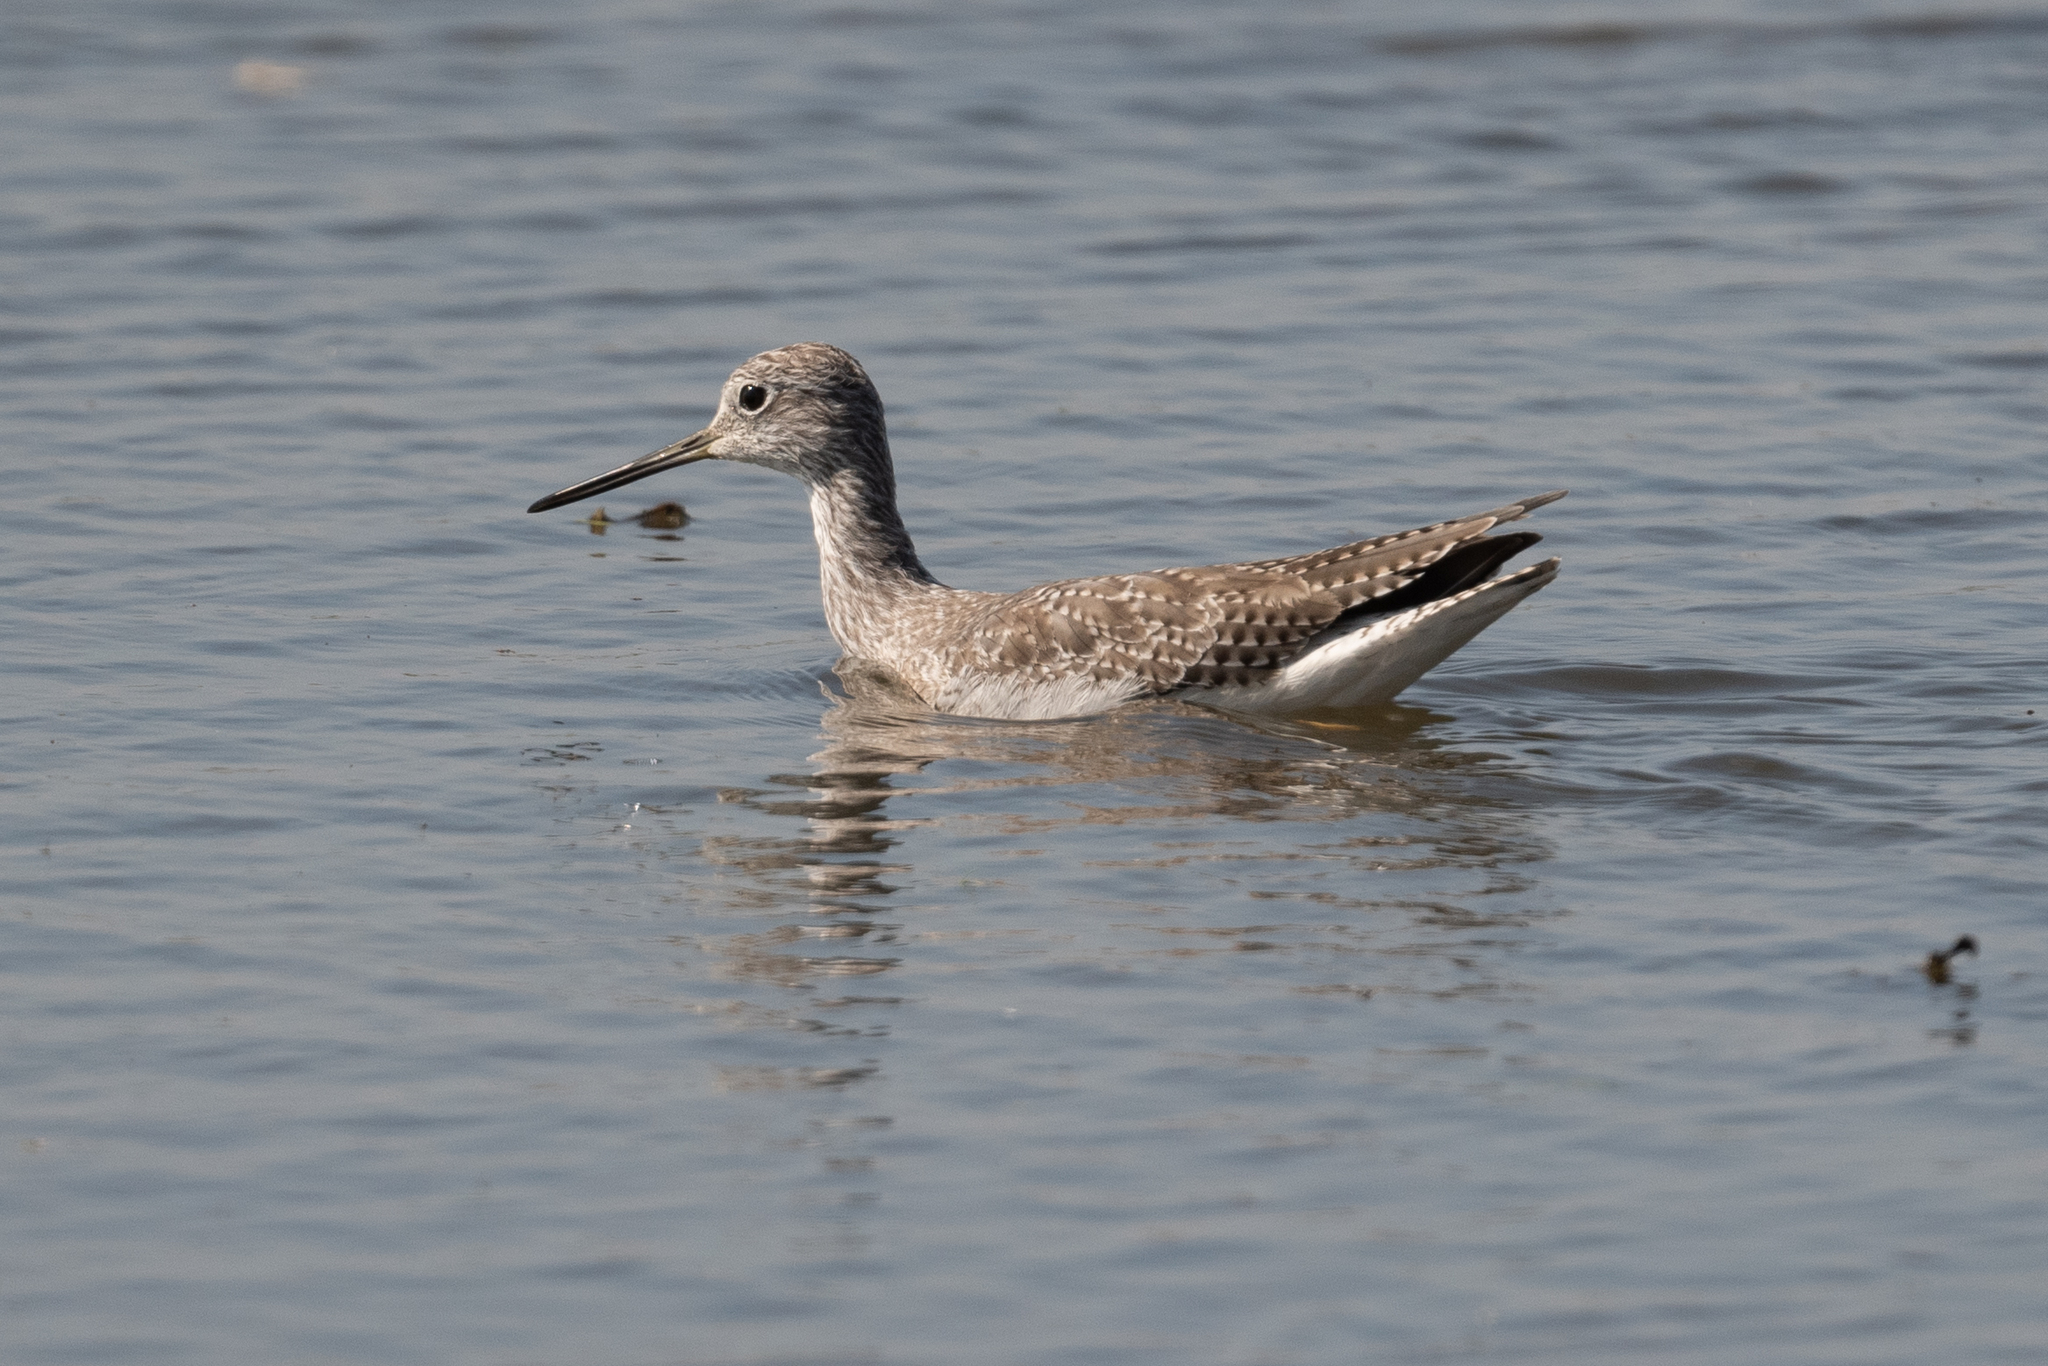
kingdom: Animalia
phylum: Chordata
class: Aves
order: Charadriiformes
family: Scolopacidae
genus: Tringa
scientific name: Tringa melanoleuca
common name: Greater yellowlegs
